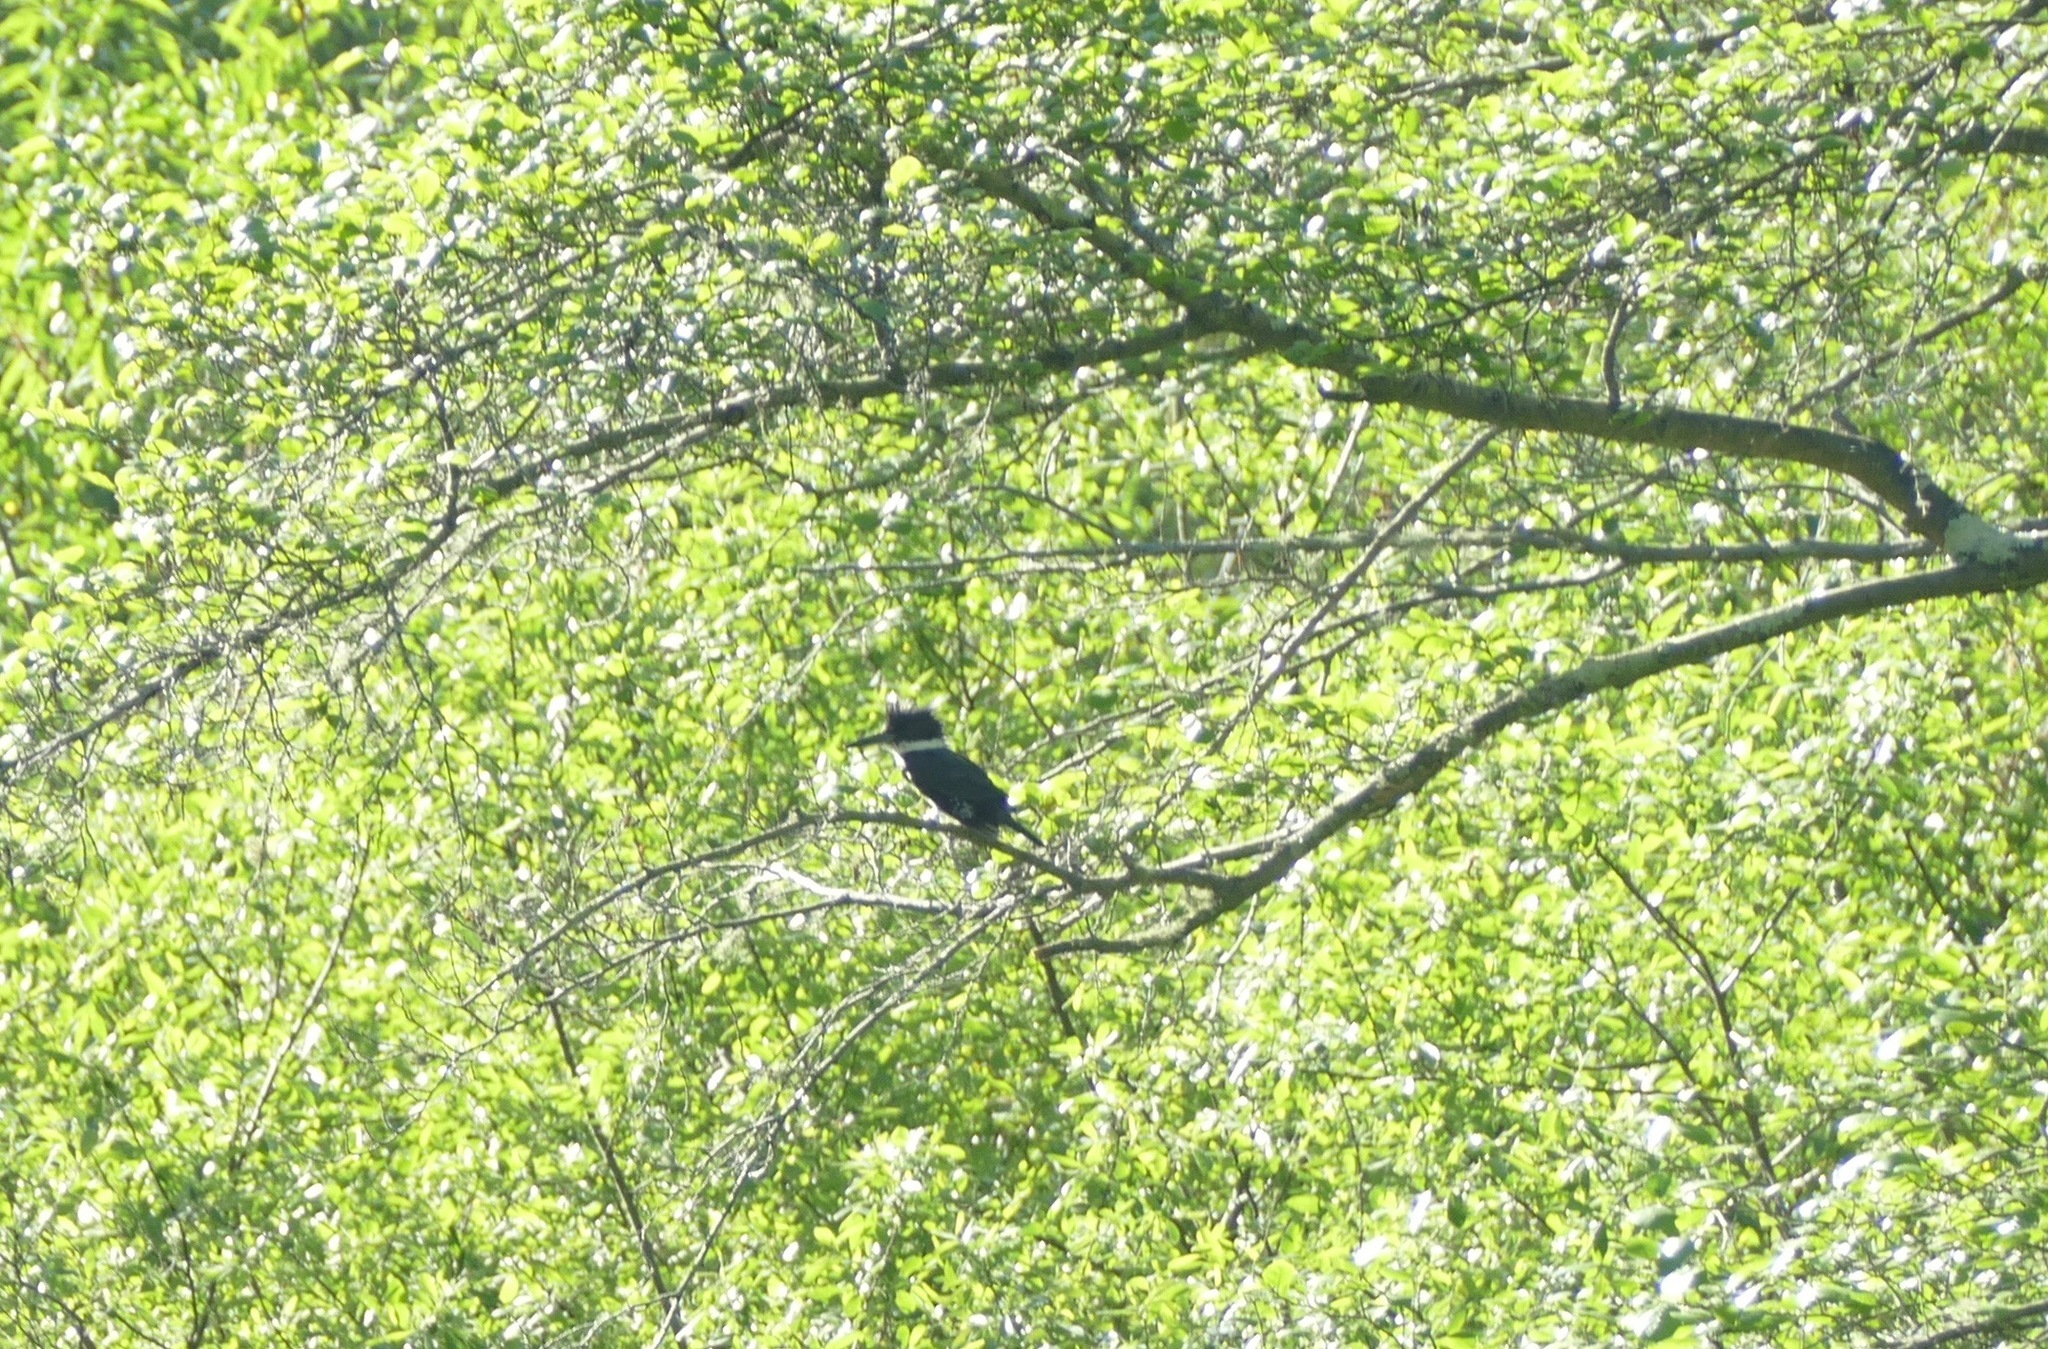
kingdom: Animalia
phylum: Chordata
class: Aves
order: Coraciiformes
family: Alcedinidae
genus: Megaceryle
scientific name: Megaceryle alcyon
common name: Belted kingfisher
